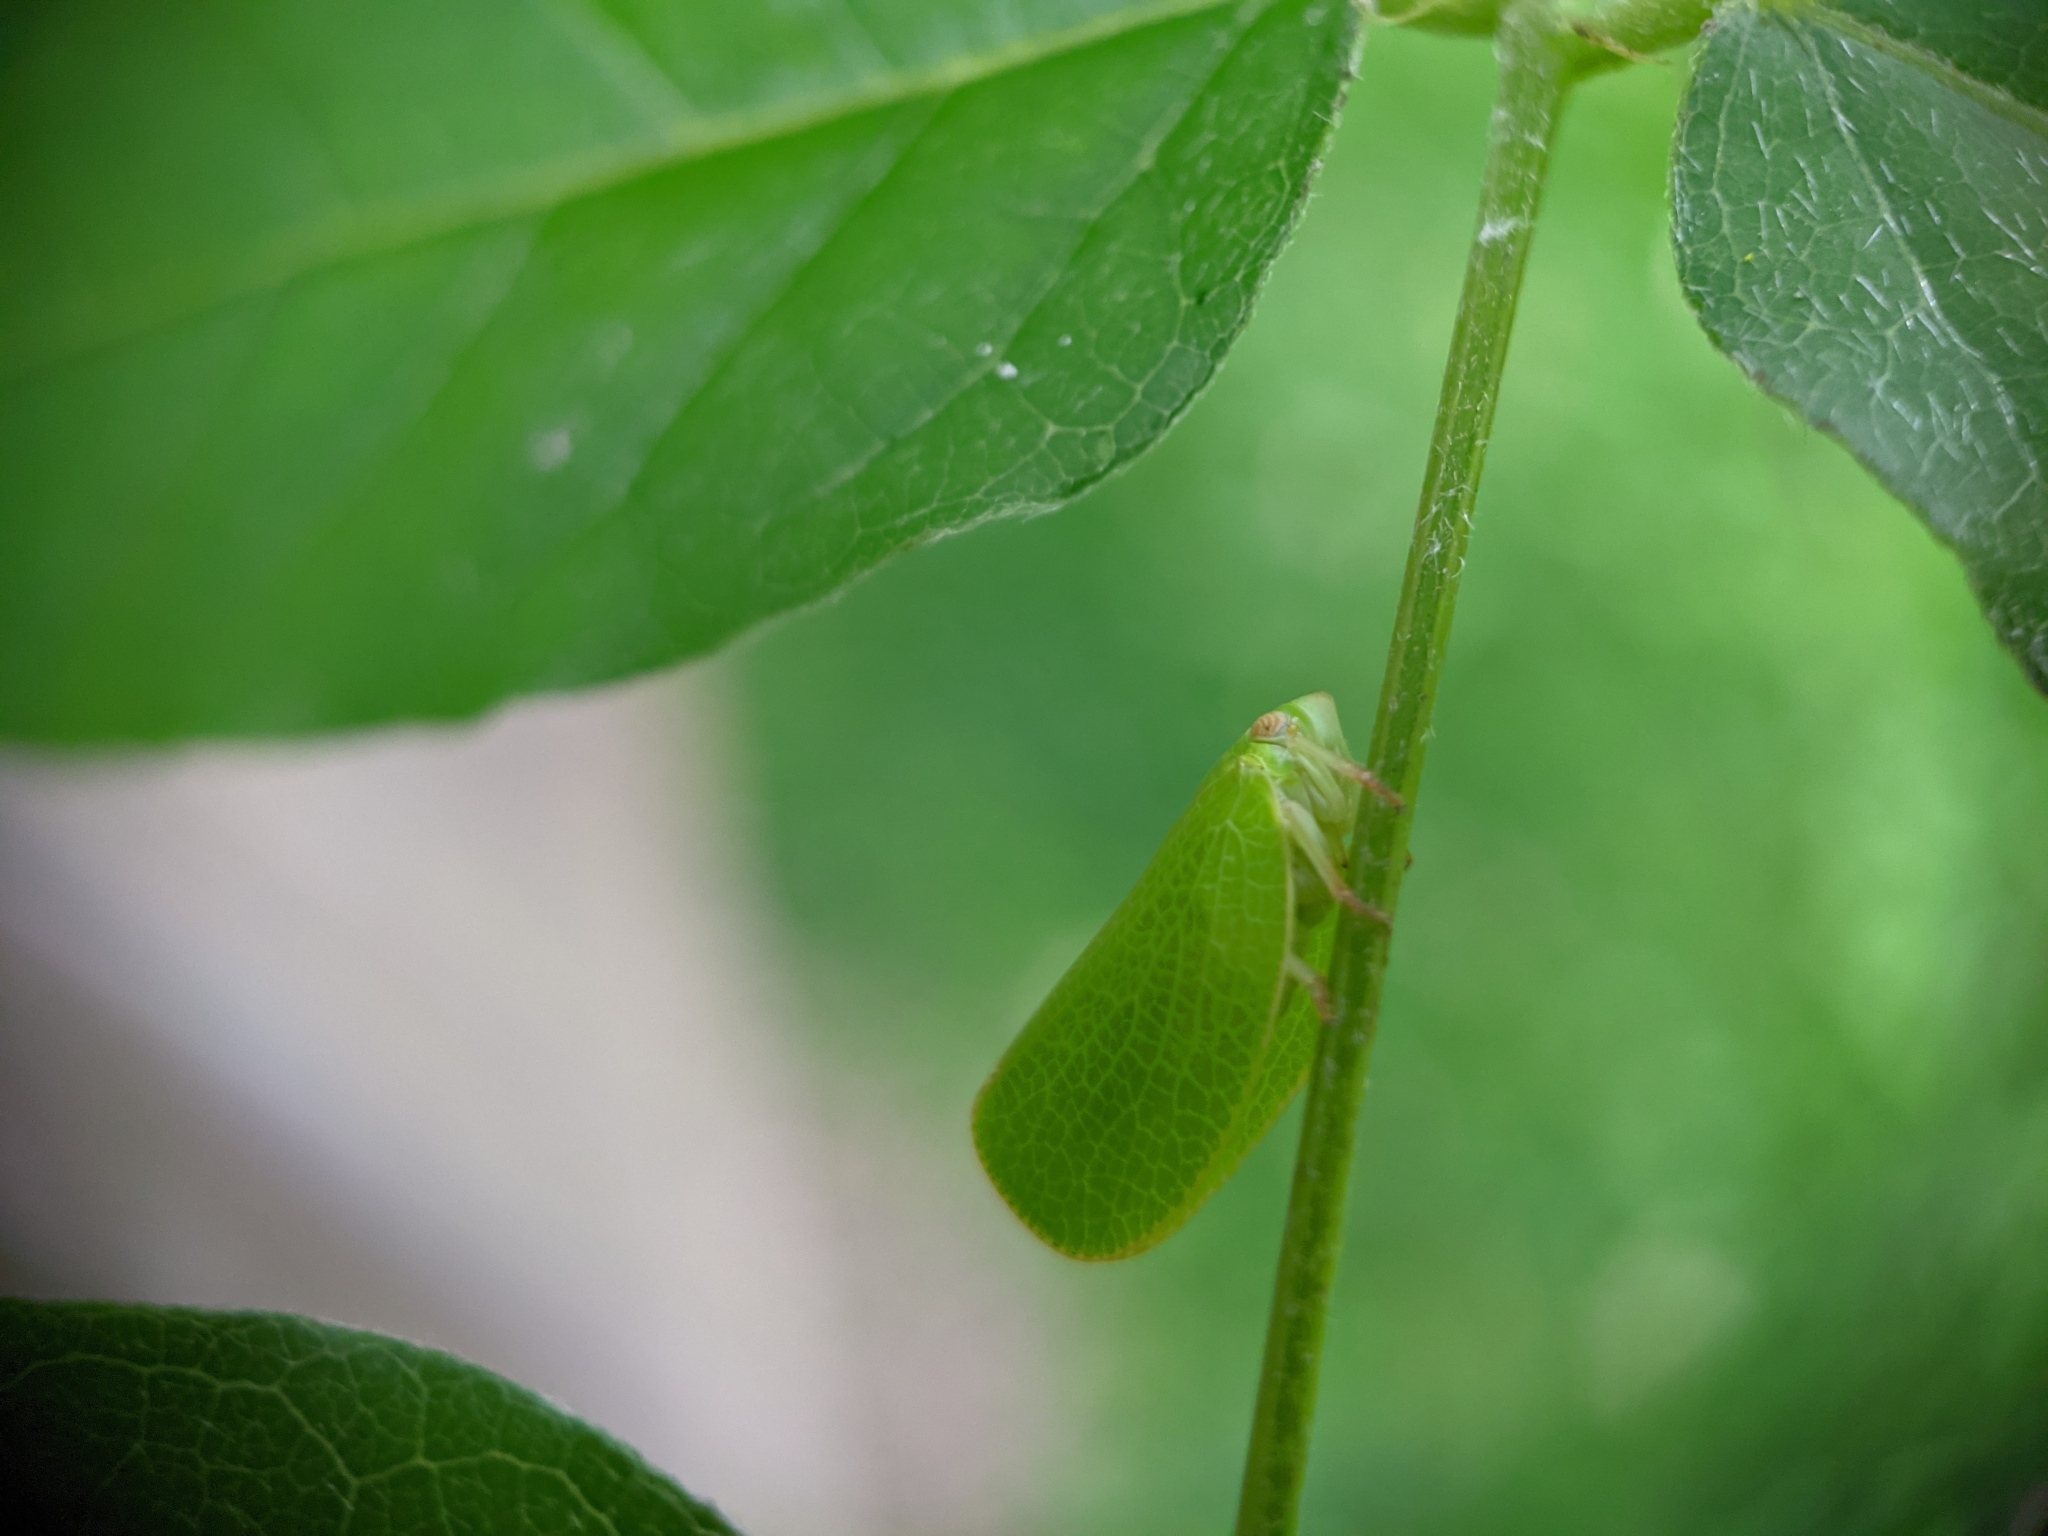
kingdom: Animalia
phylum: Arthropoda
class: Insecta
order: Hemiptera
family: Acanaloniidae
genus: Acanalonia
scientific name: Acanalonia conica
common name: Green cone-headed planthopper
